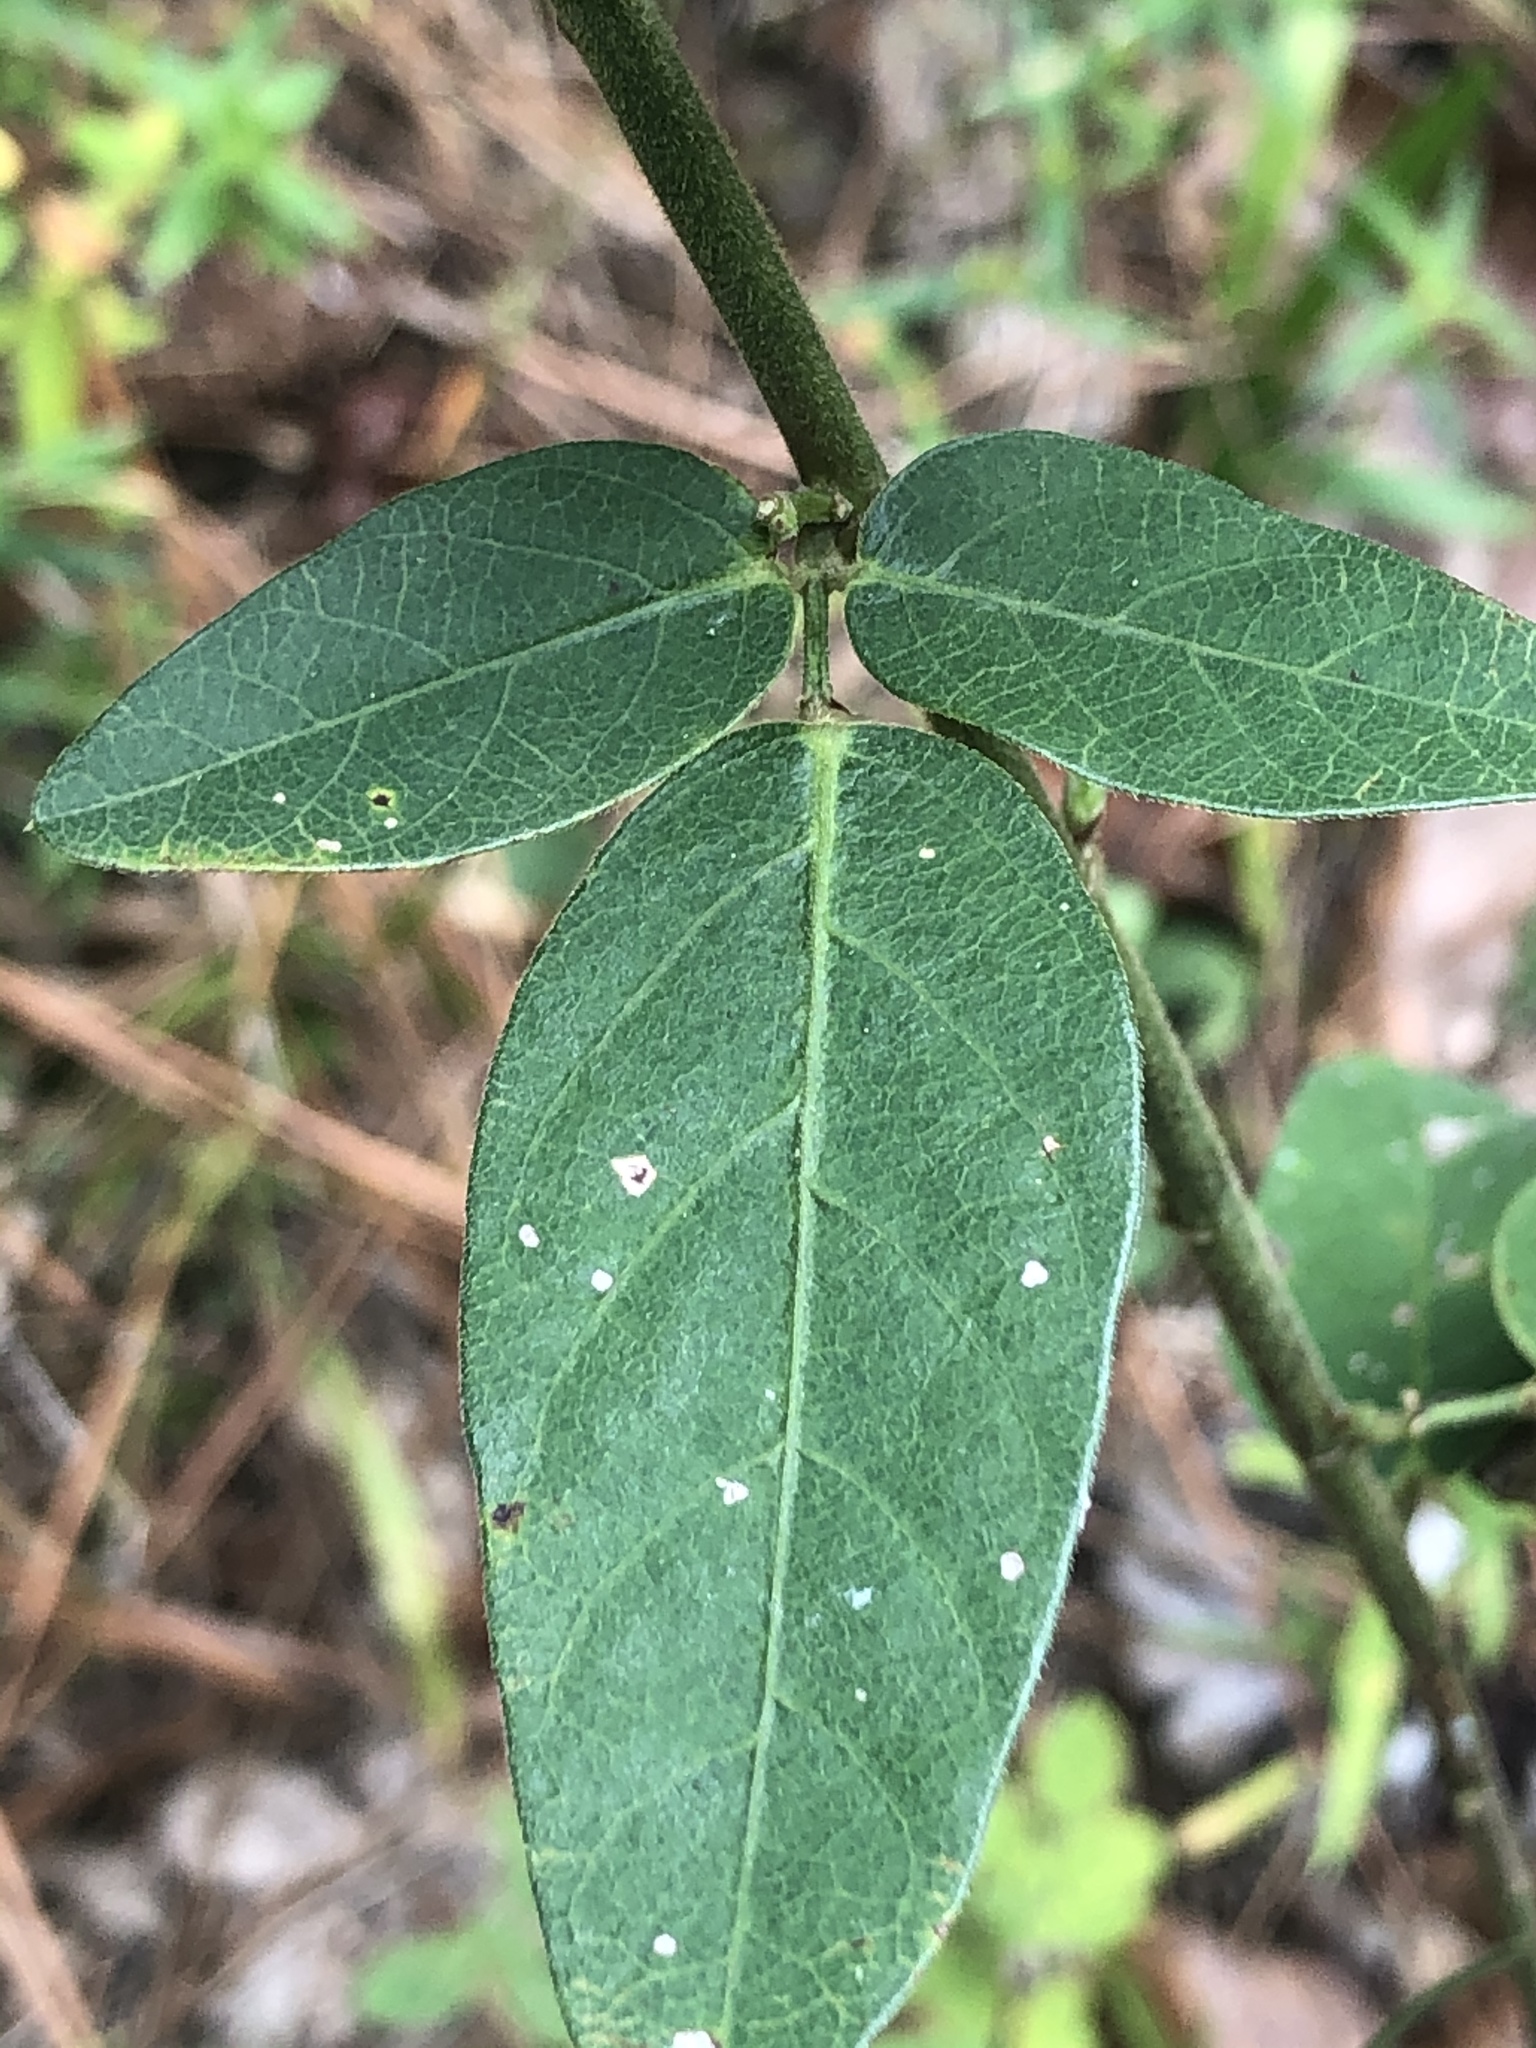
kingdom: Plantae
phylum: Tracheophyta
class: Magnoliopsida
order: Fabales
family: Fabaceae
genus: Desmodium
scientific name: Desmodium obtusum
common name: Stiff tick trefoil
